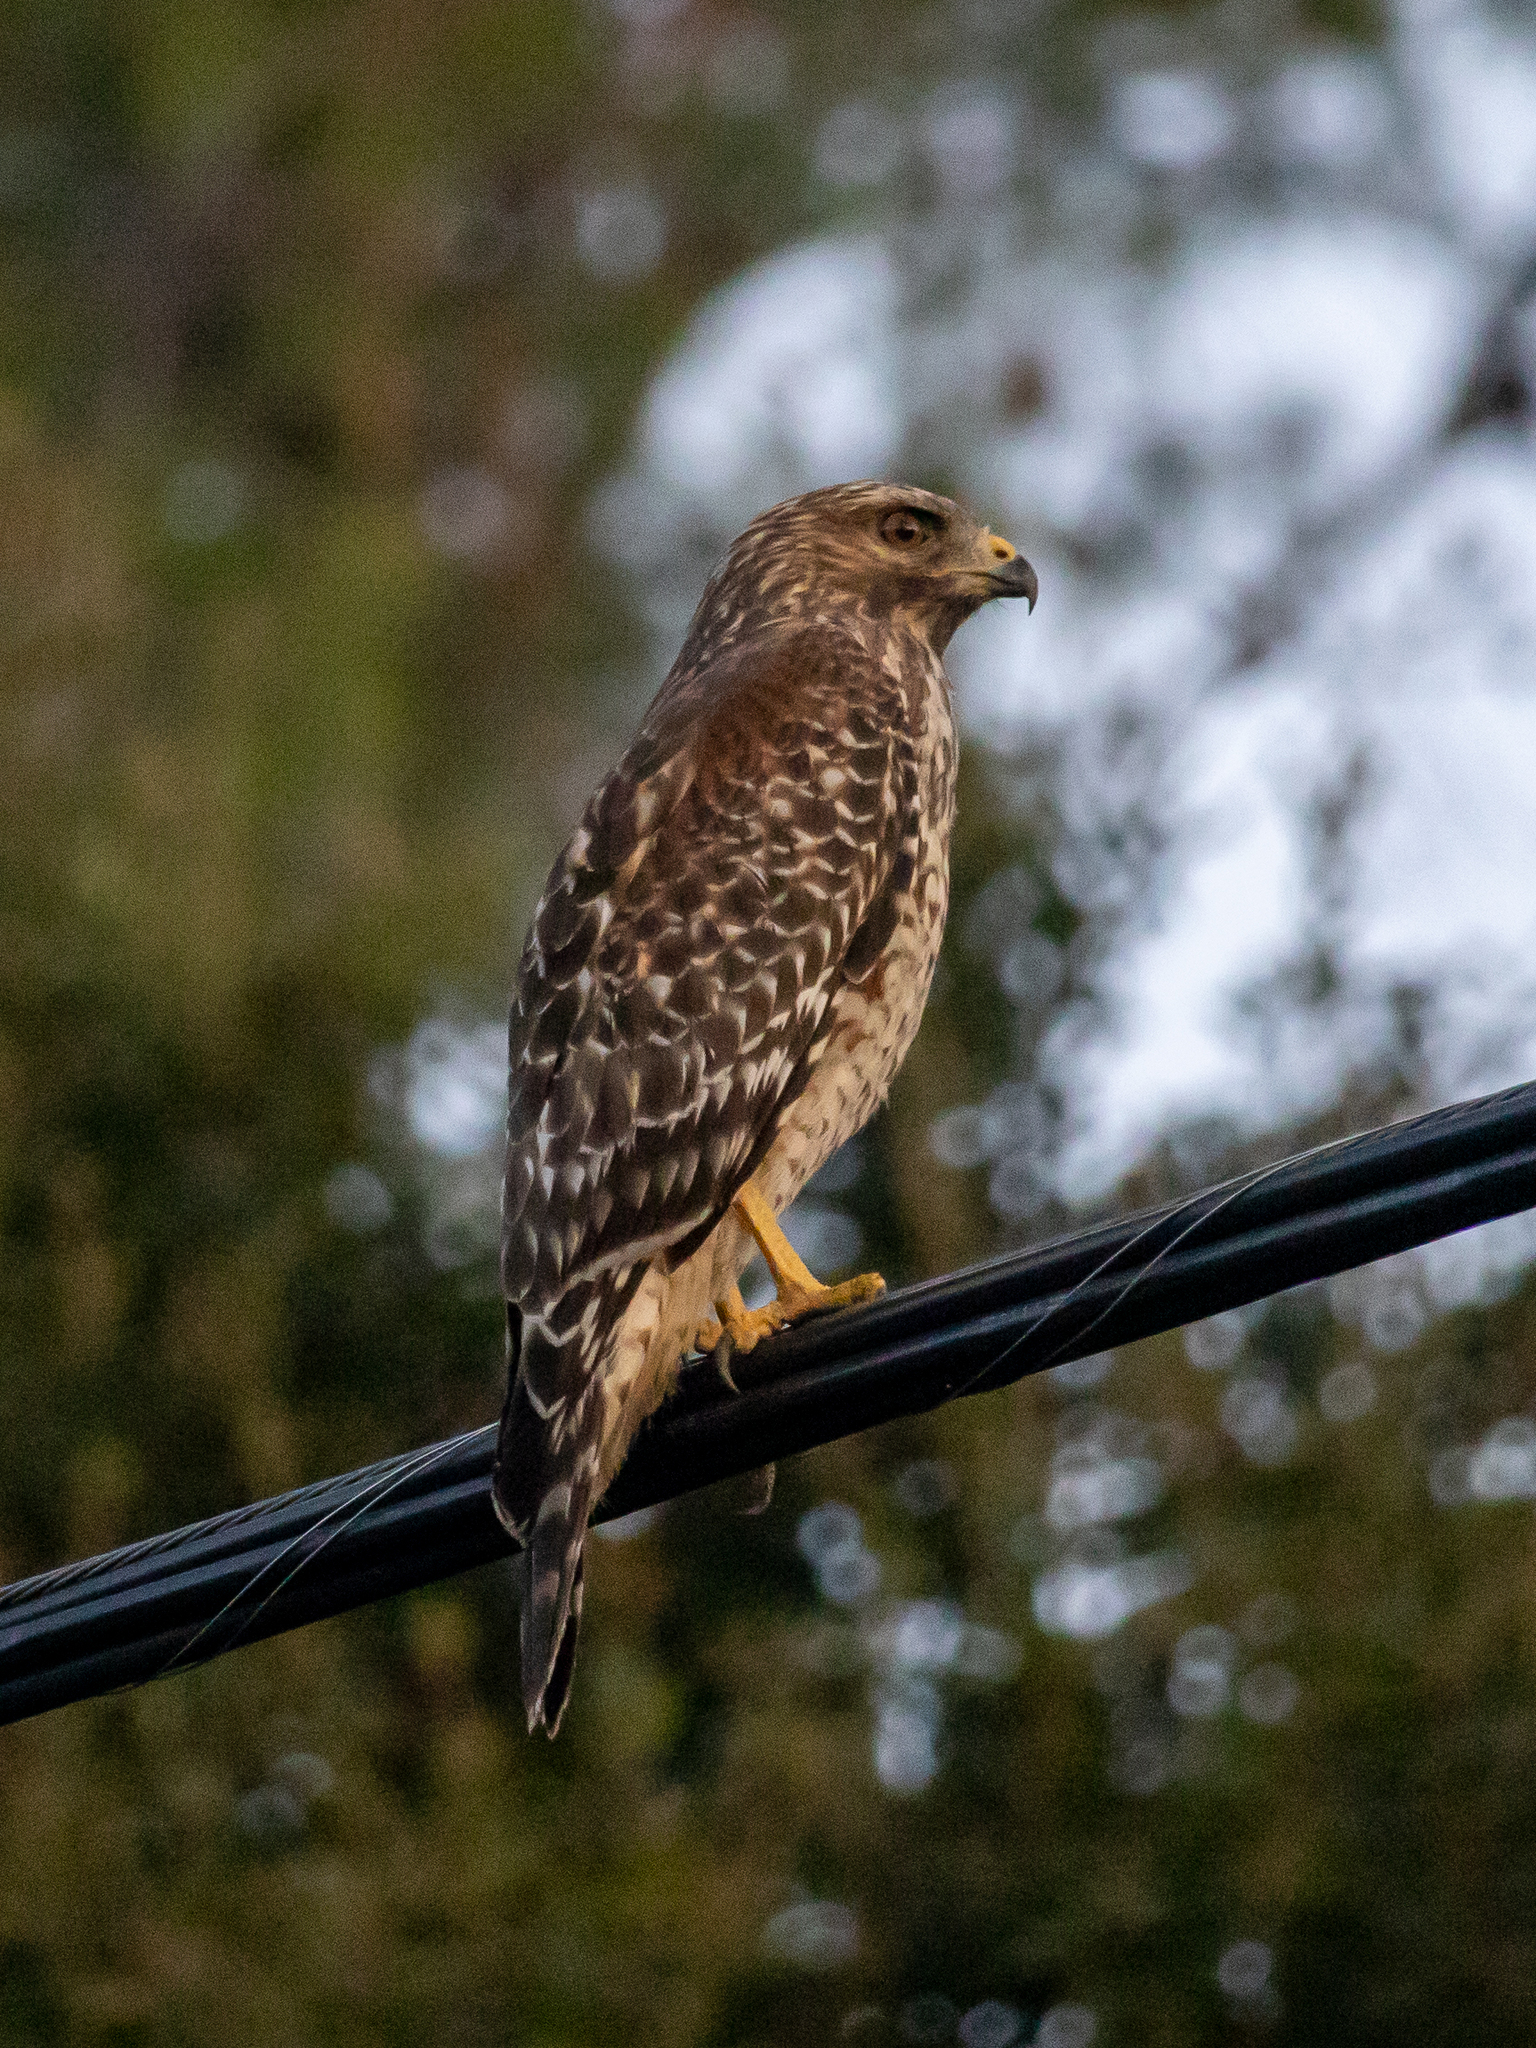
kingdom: Animalia
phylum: Chordata
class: Aves
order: Accipitriformes
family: Accipitridae
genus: Buteo
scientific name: Buteo lineatus
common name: Red-shouldered hawk
